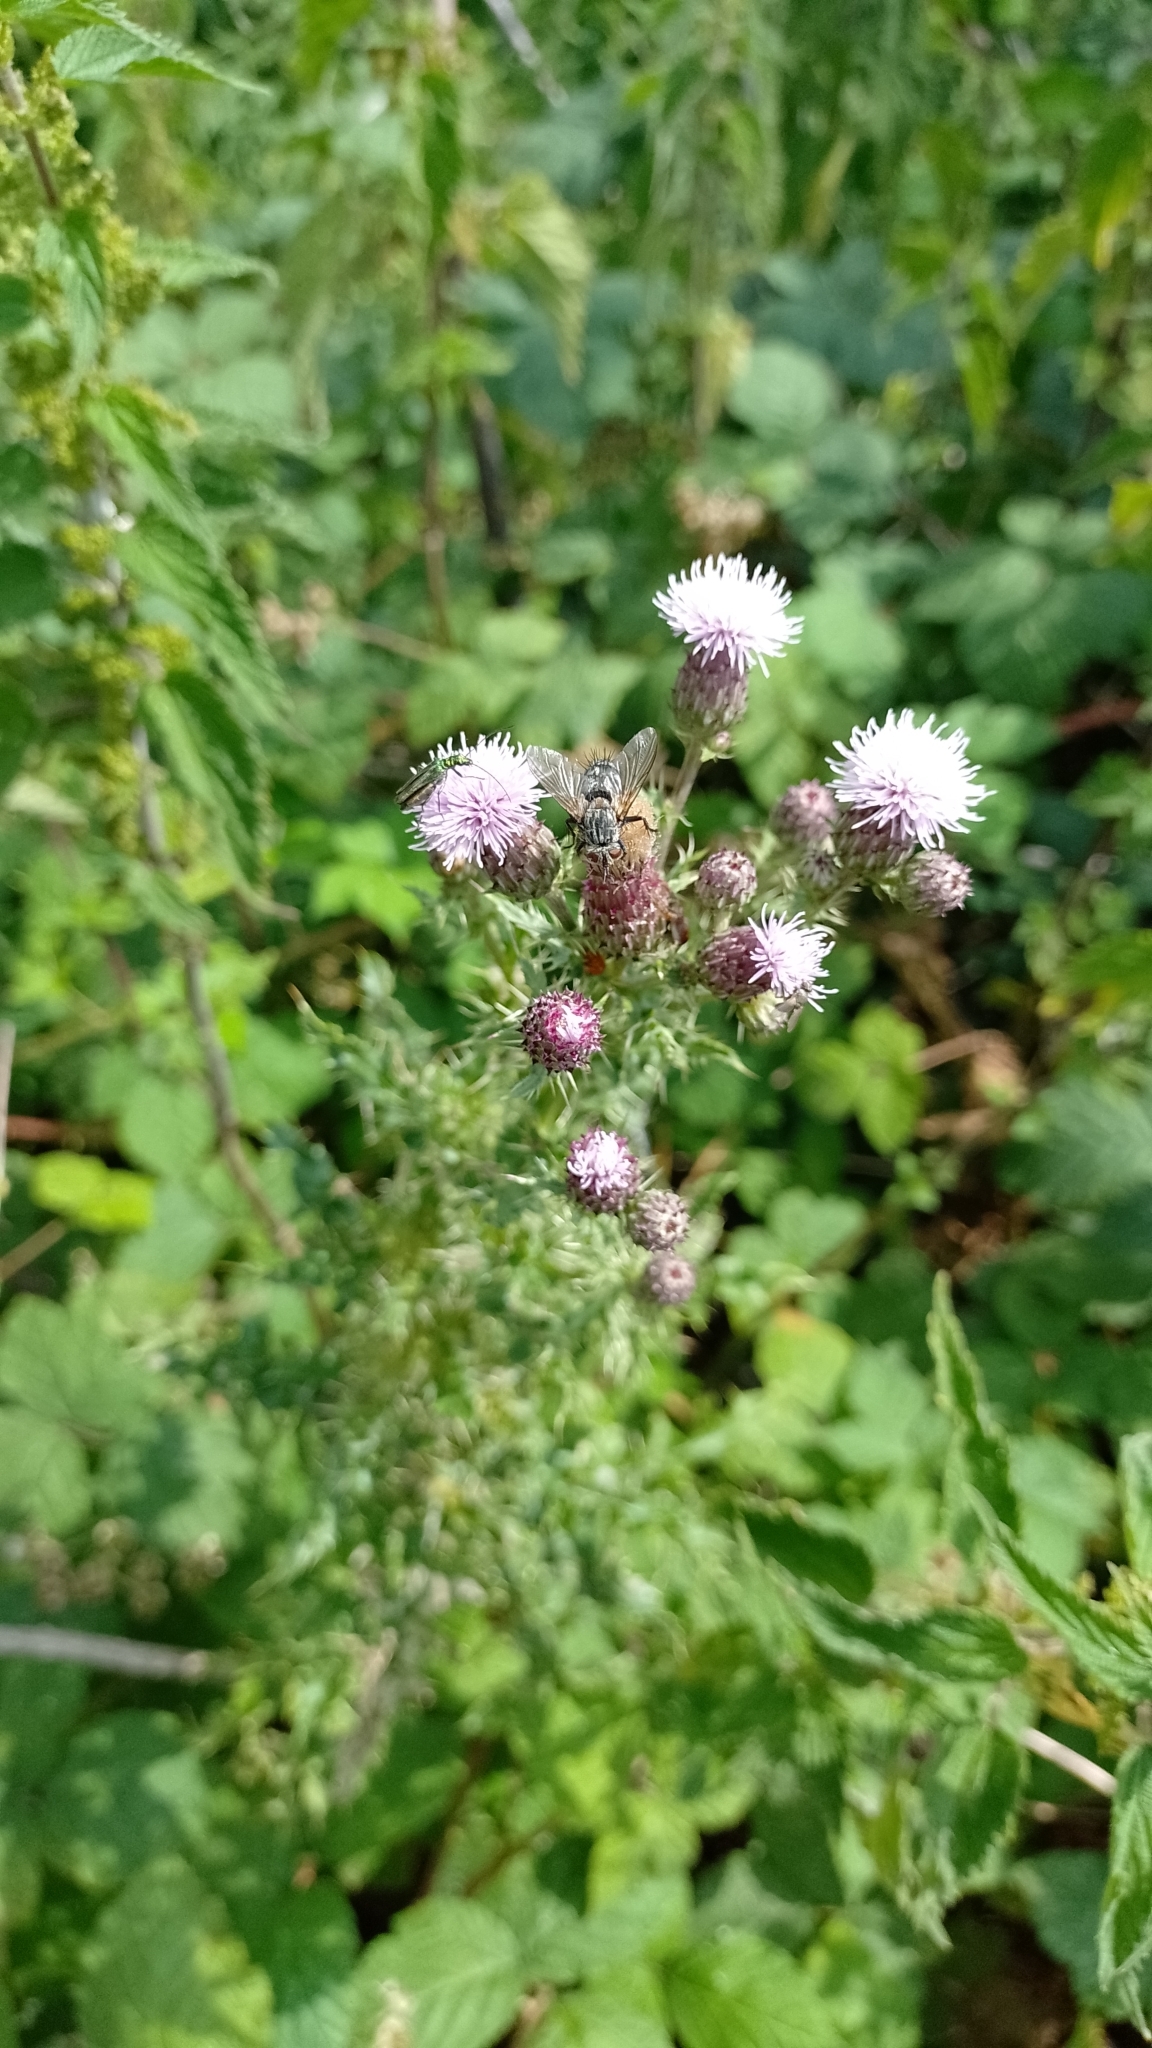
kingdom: Plantae
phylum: Tracheophyta
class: Magnoliopsida
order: Asterales
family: Asteraceae
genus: Cirsium
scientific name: Cirsium arvense
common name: Creeping thistle
